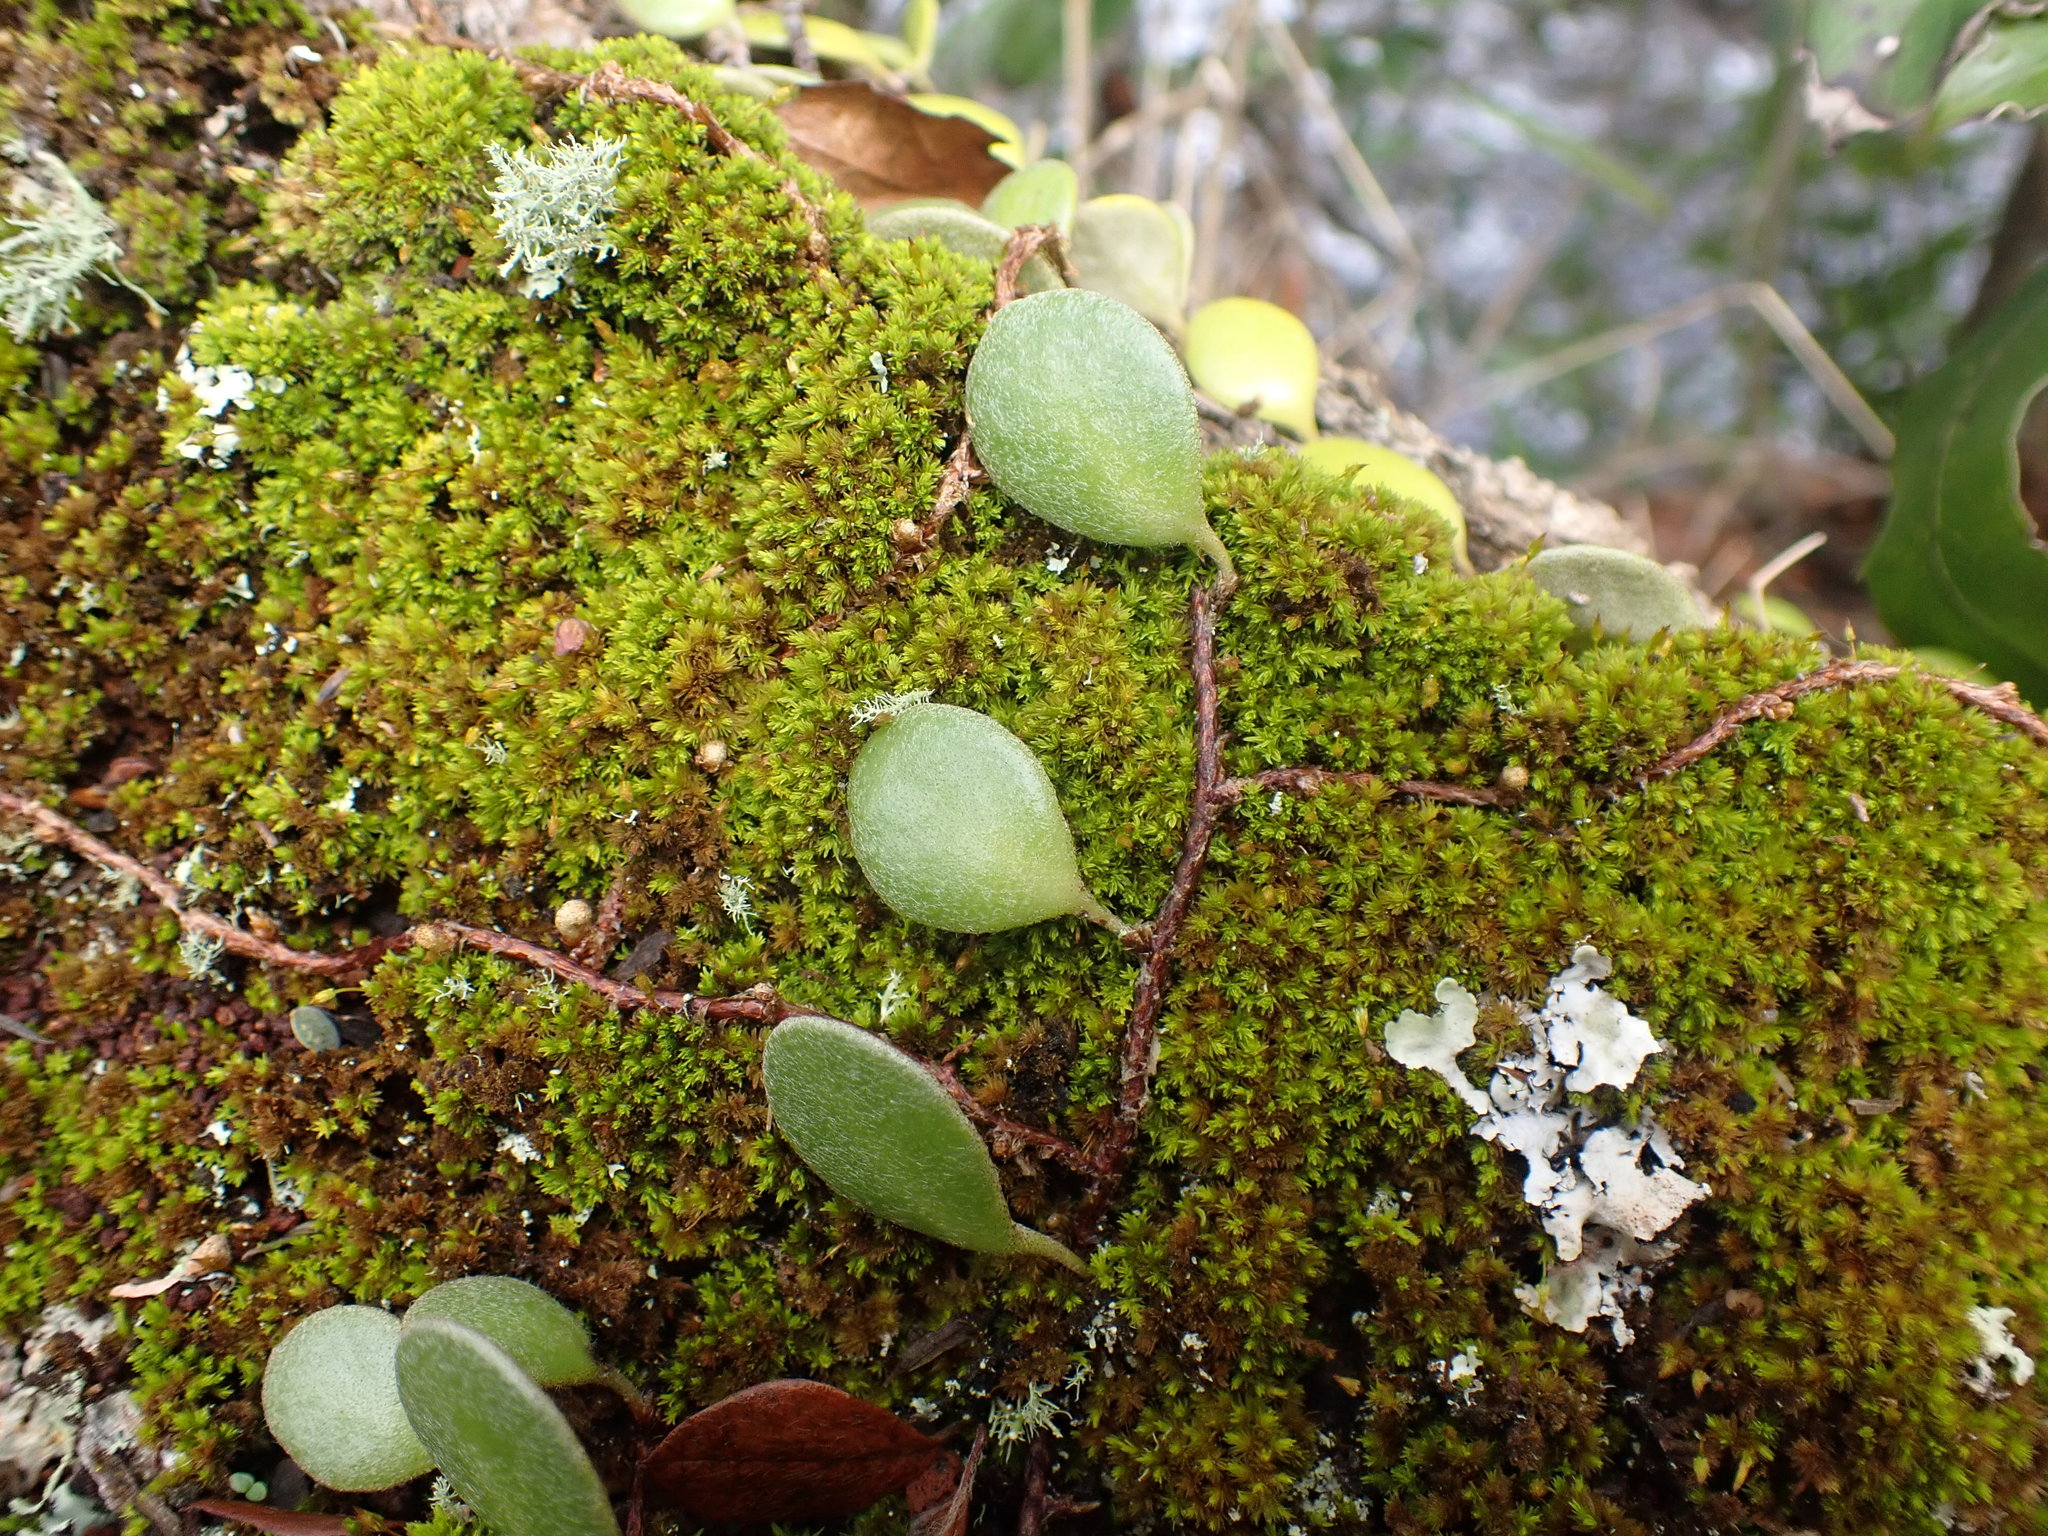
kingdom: Plantae
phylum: Tracheophyta
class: Polypodiopsida
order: Polypodiales
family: Polypodiaceae
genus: Pyrrosia
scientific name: Pyrrosia eleagnifolia
